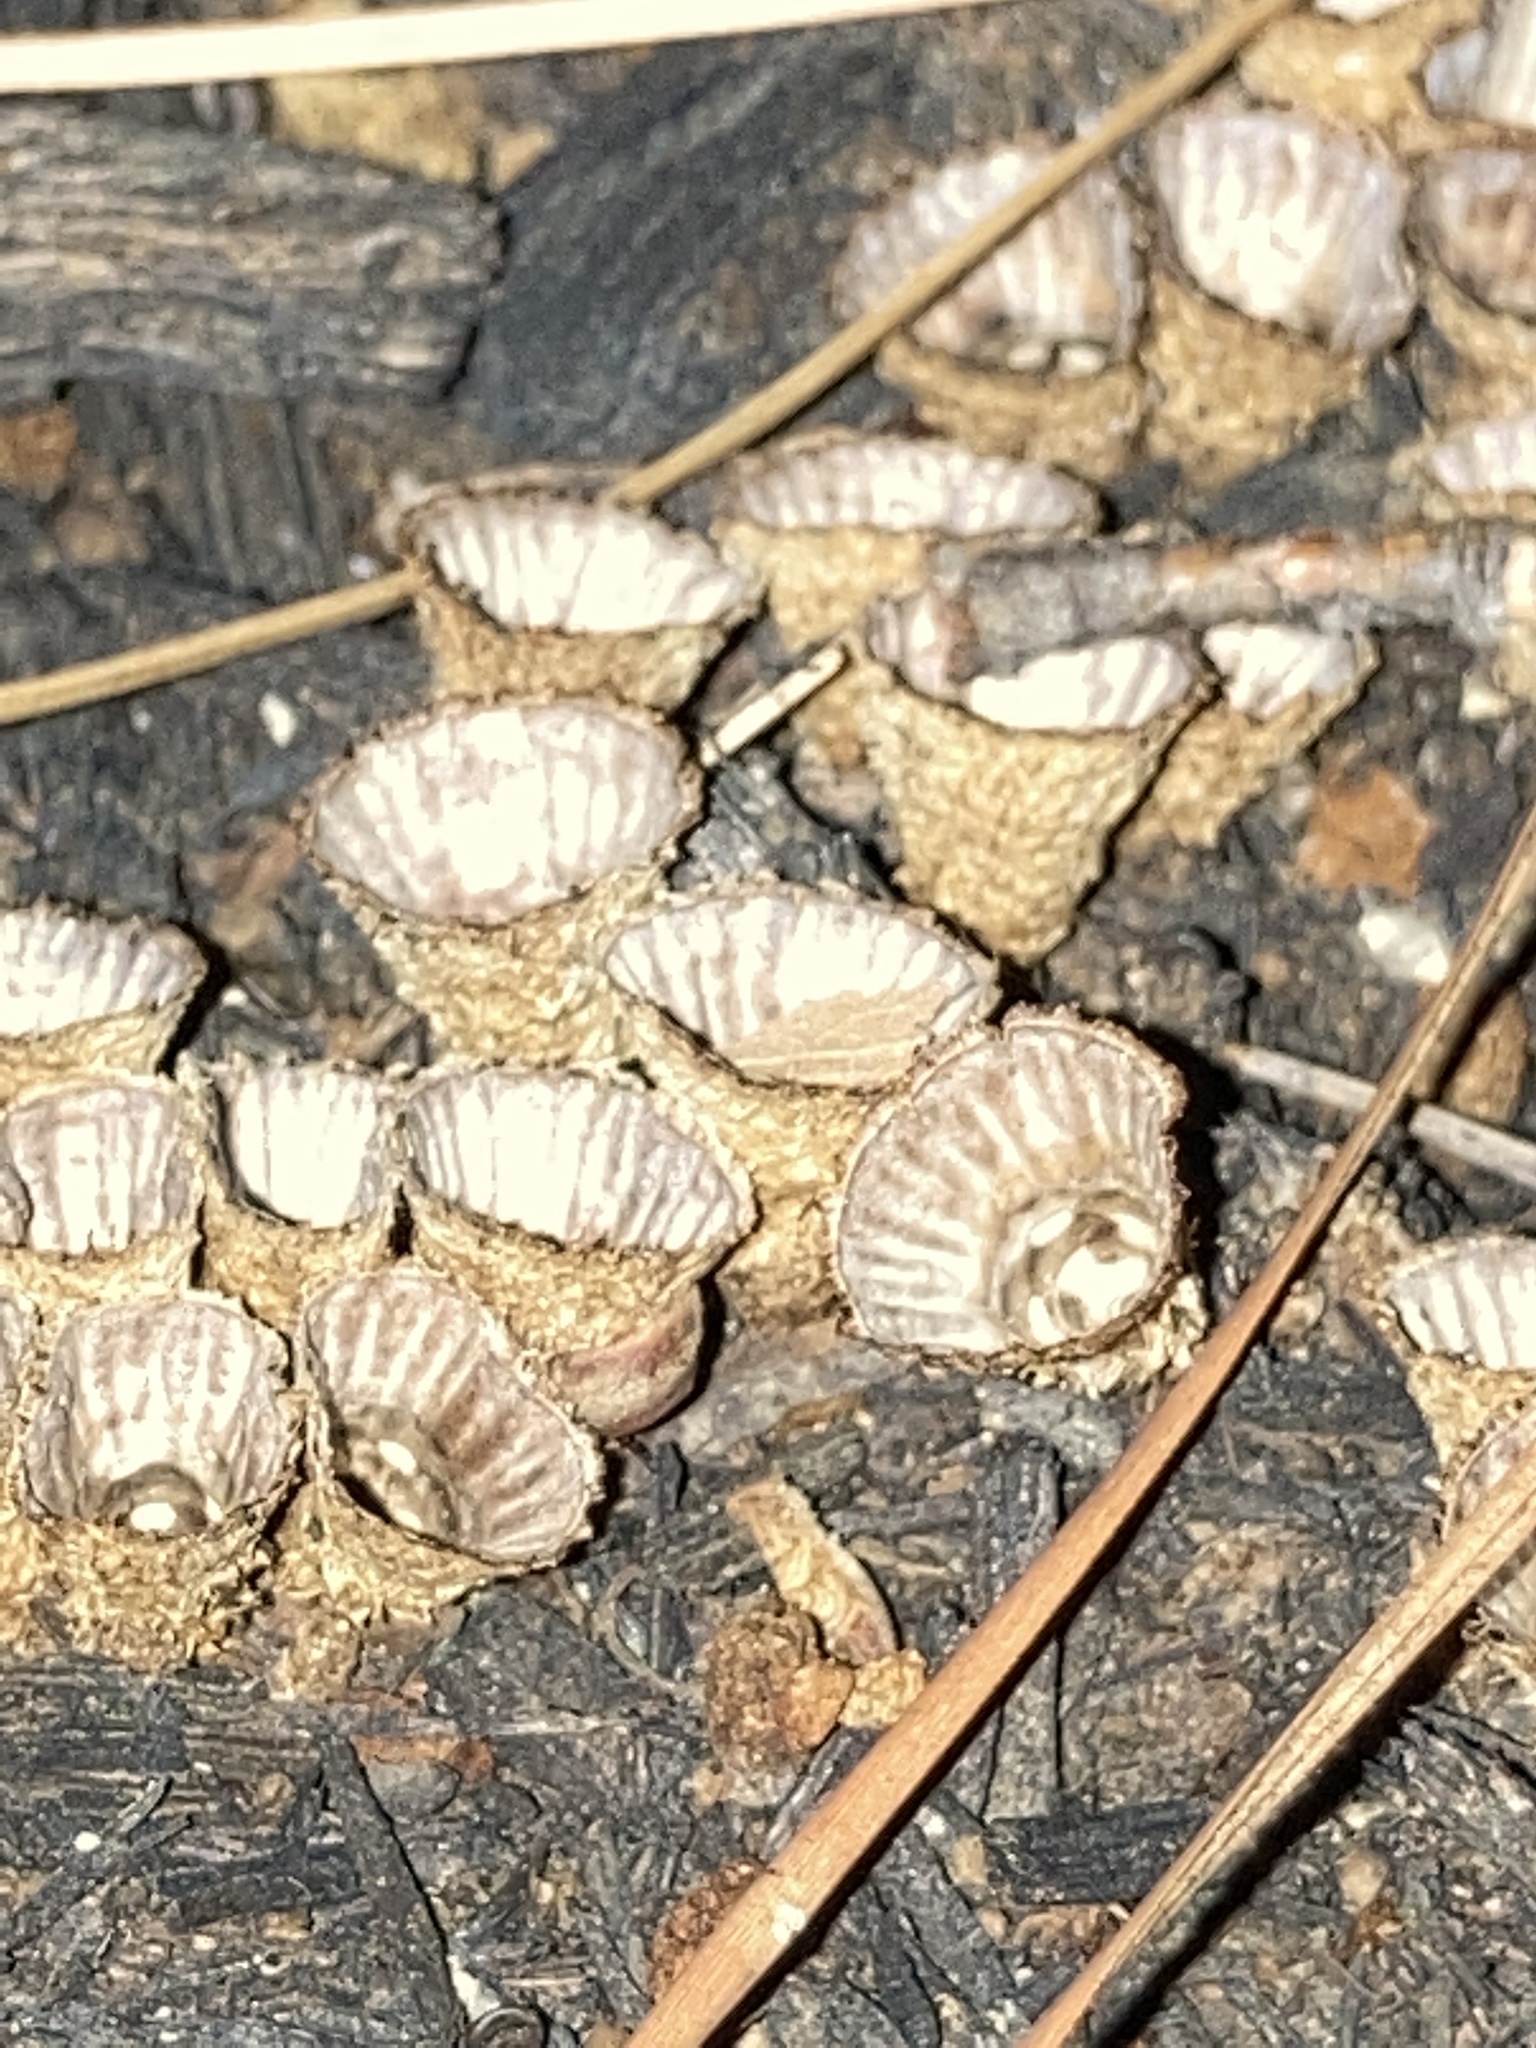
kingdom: Fungi
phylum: Basidiomycota
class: Agaricomycetes
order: Agaricales
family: Agaricaceae
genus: Cyathus
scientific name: Cyathus striatus
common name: Fluted bird's nest
